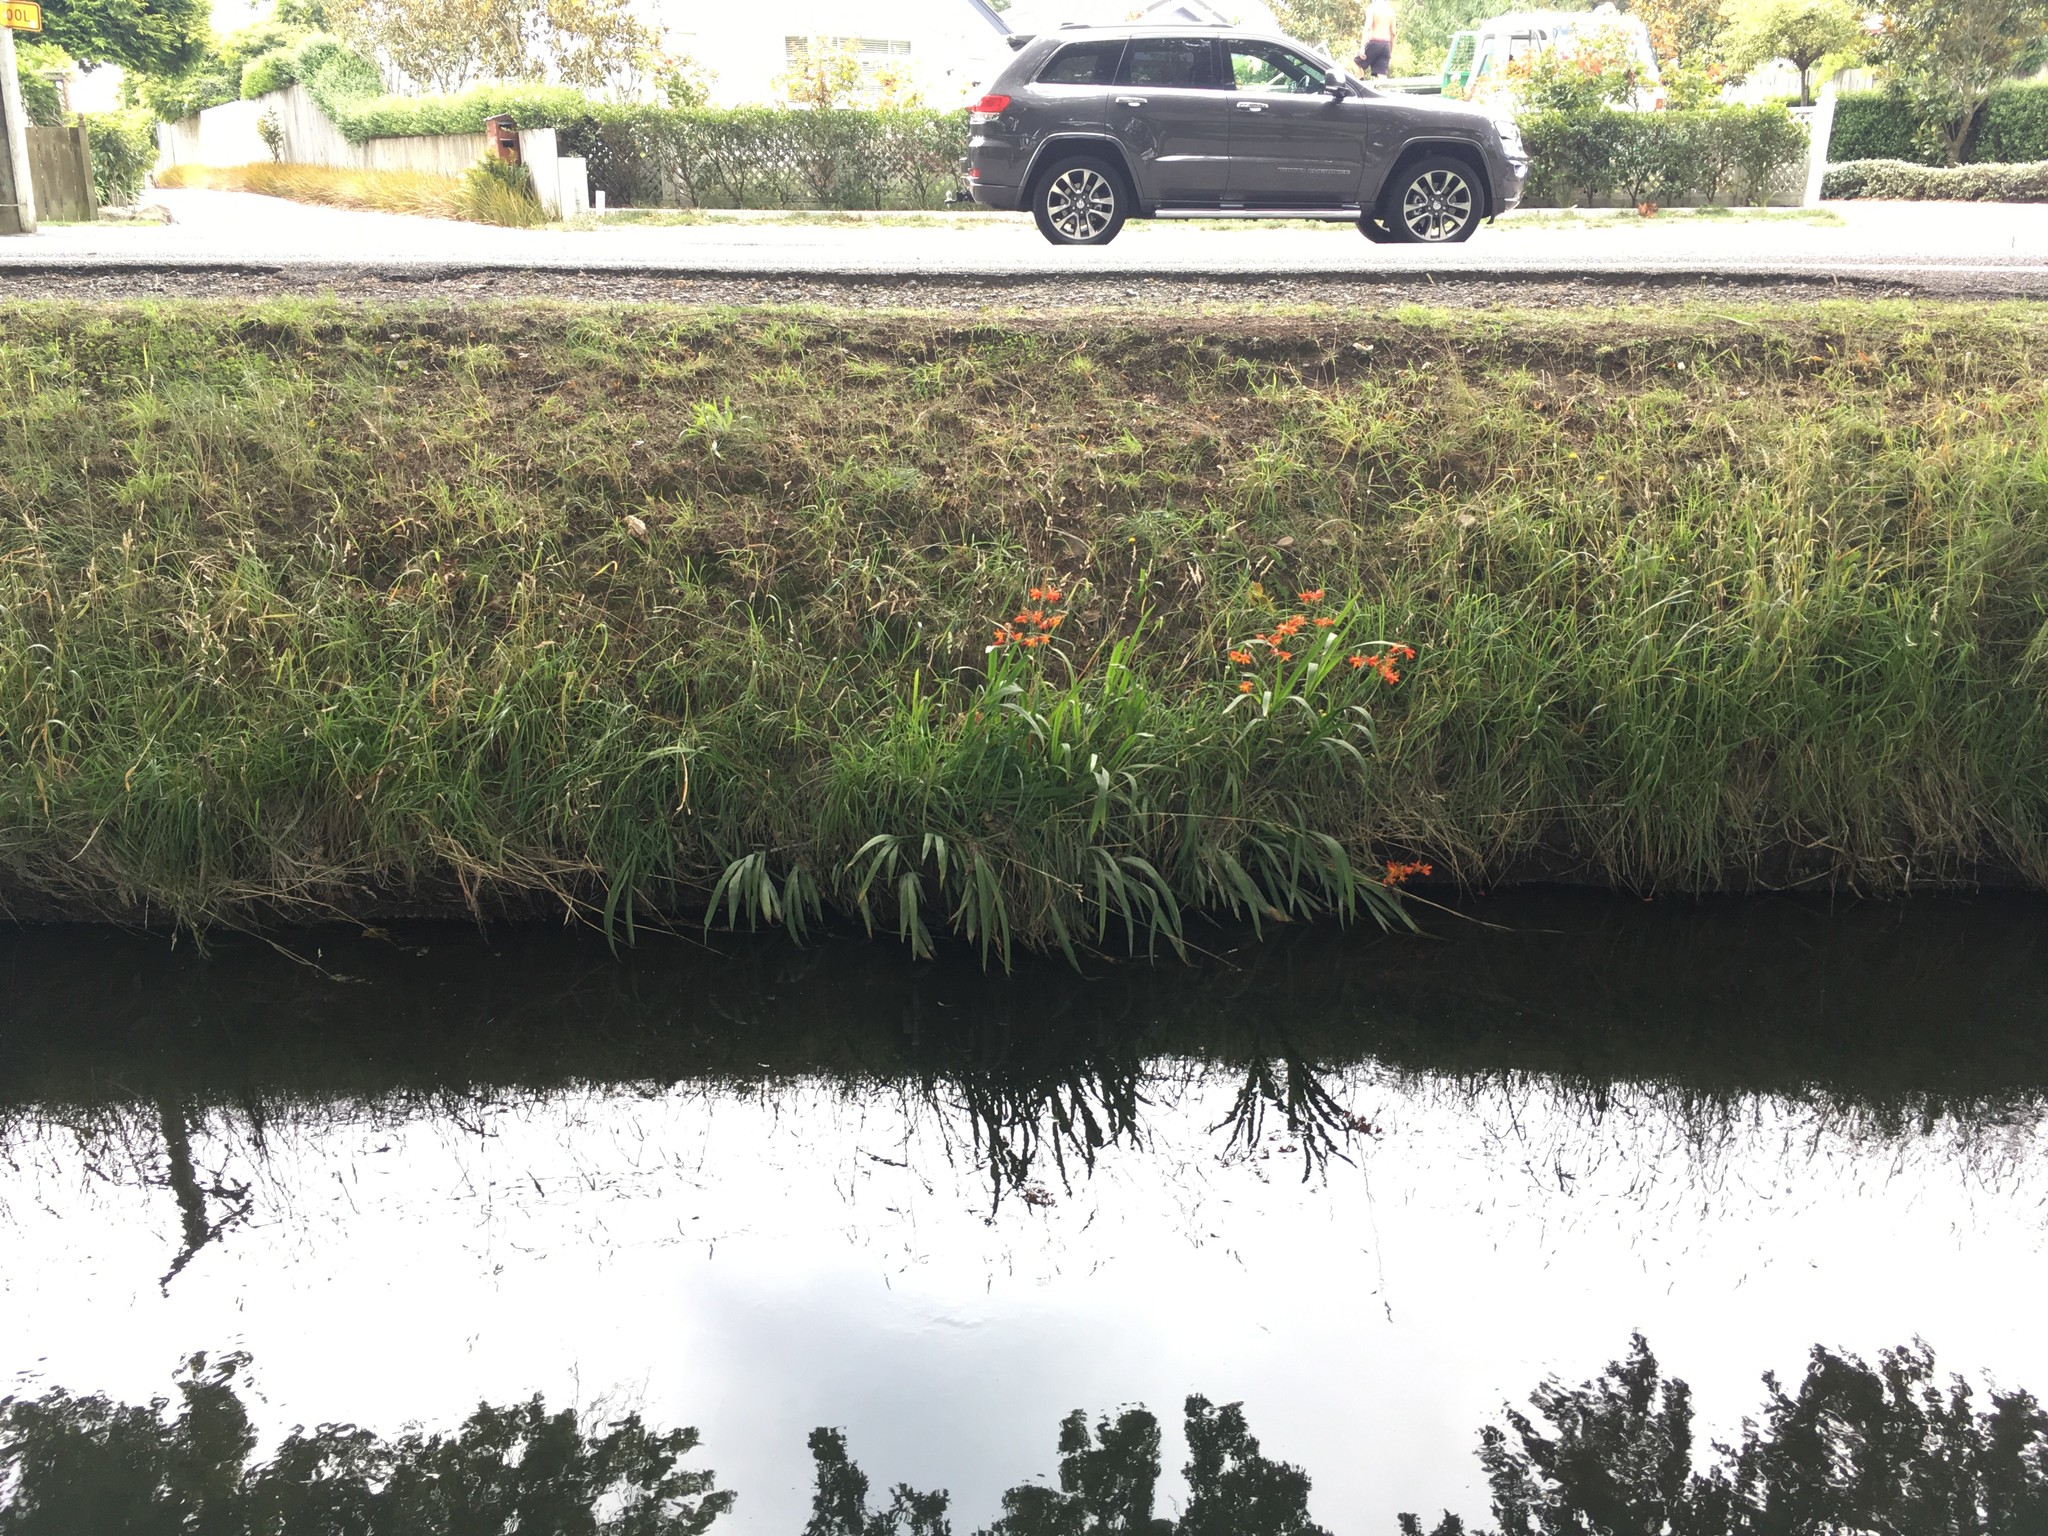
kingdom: Plantae
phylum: Tracheophyta
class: Liliopsida
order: Asparagales
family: Iridaceae
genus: Crocosmia
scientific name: Crocosmia crocosmiiflora
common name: Montbretia
